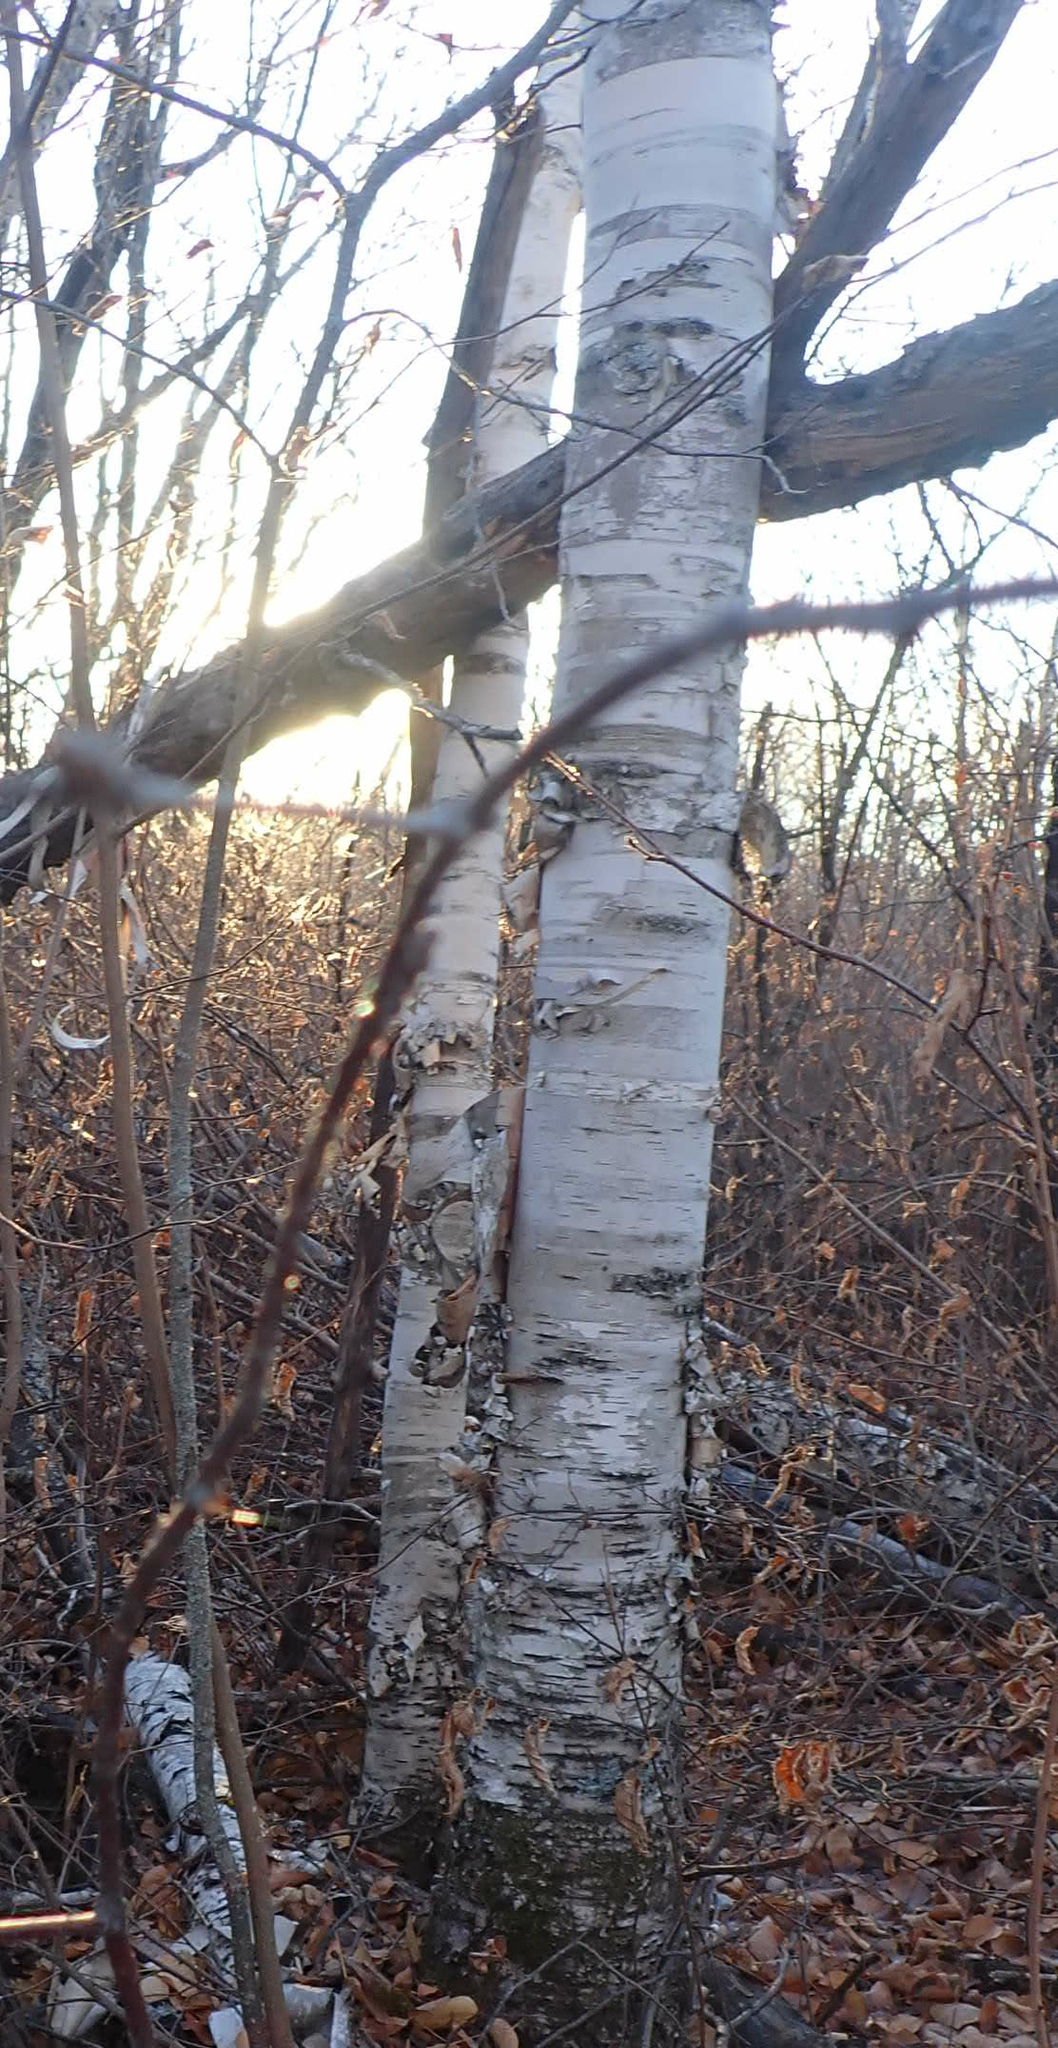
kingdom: Plantae
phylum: Tracheophyta
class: Magnoliopsida
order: Fagales
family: Betulaceae
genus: Betula
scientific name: Betula papyrifera
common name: Paper birch
